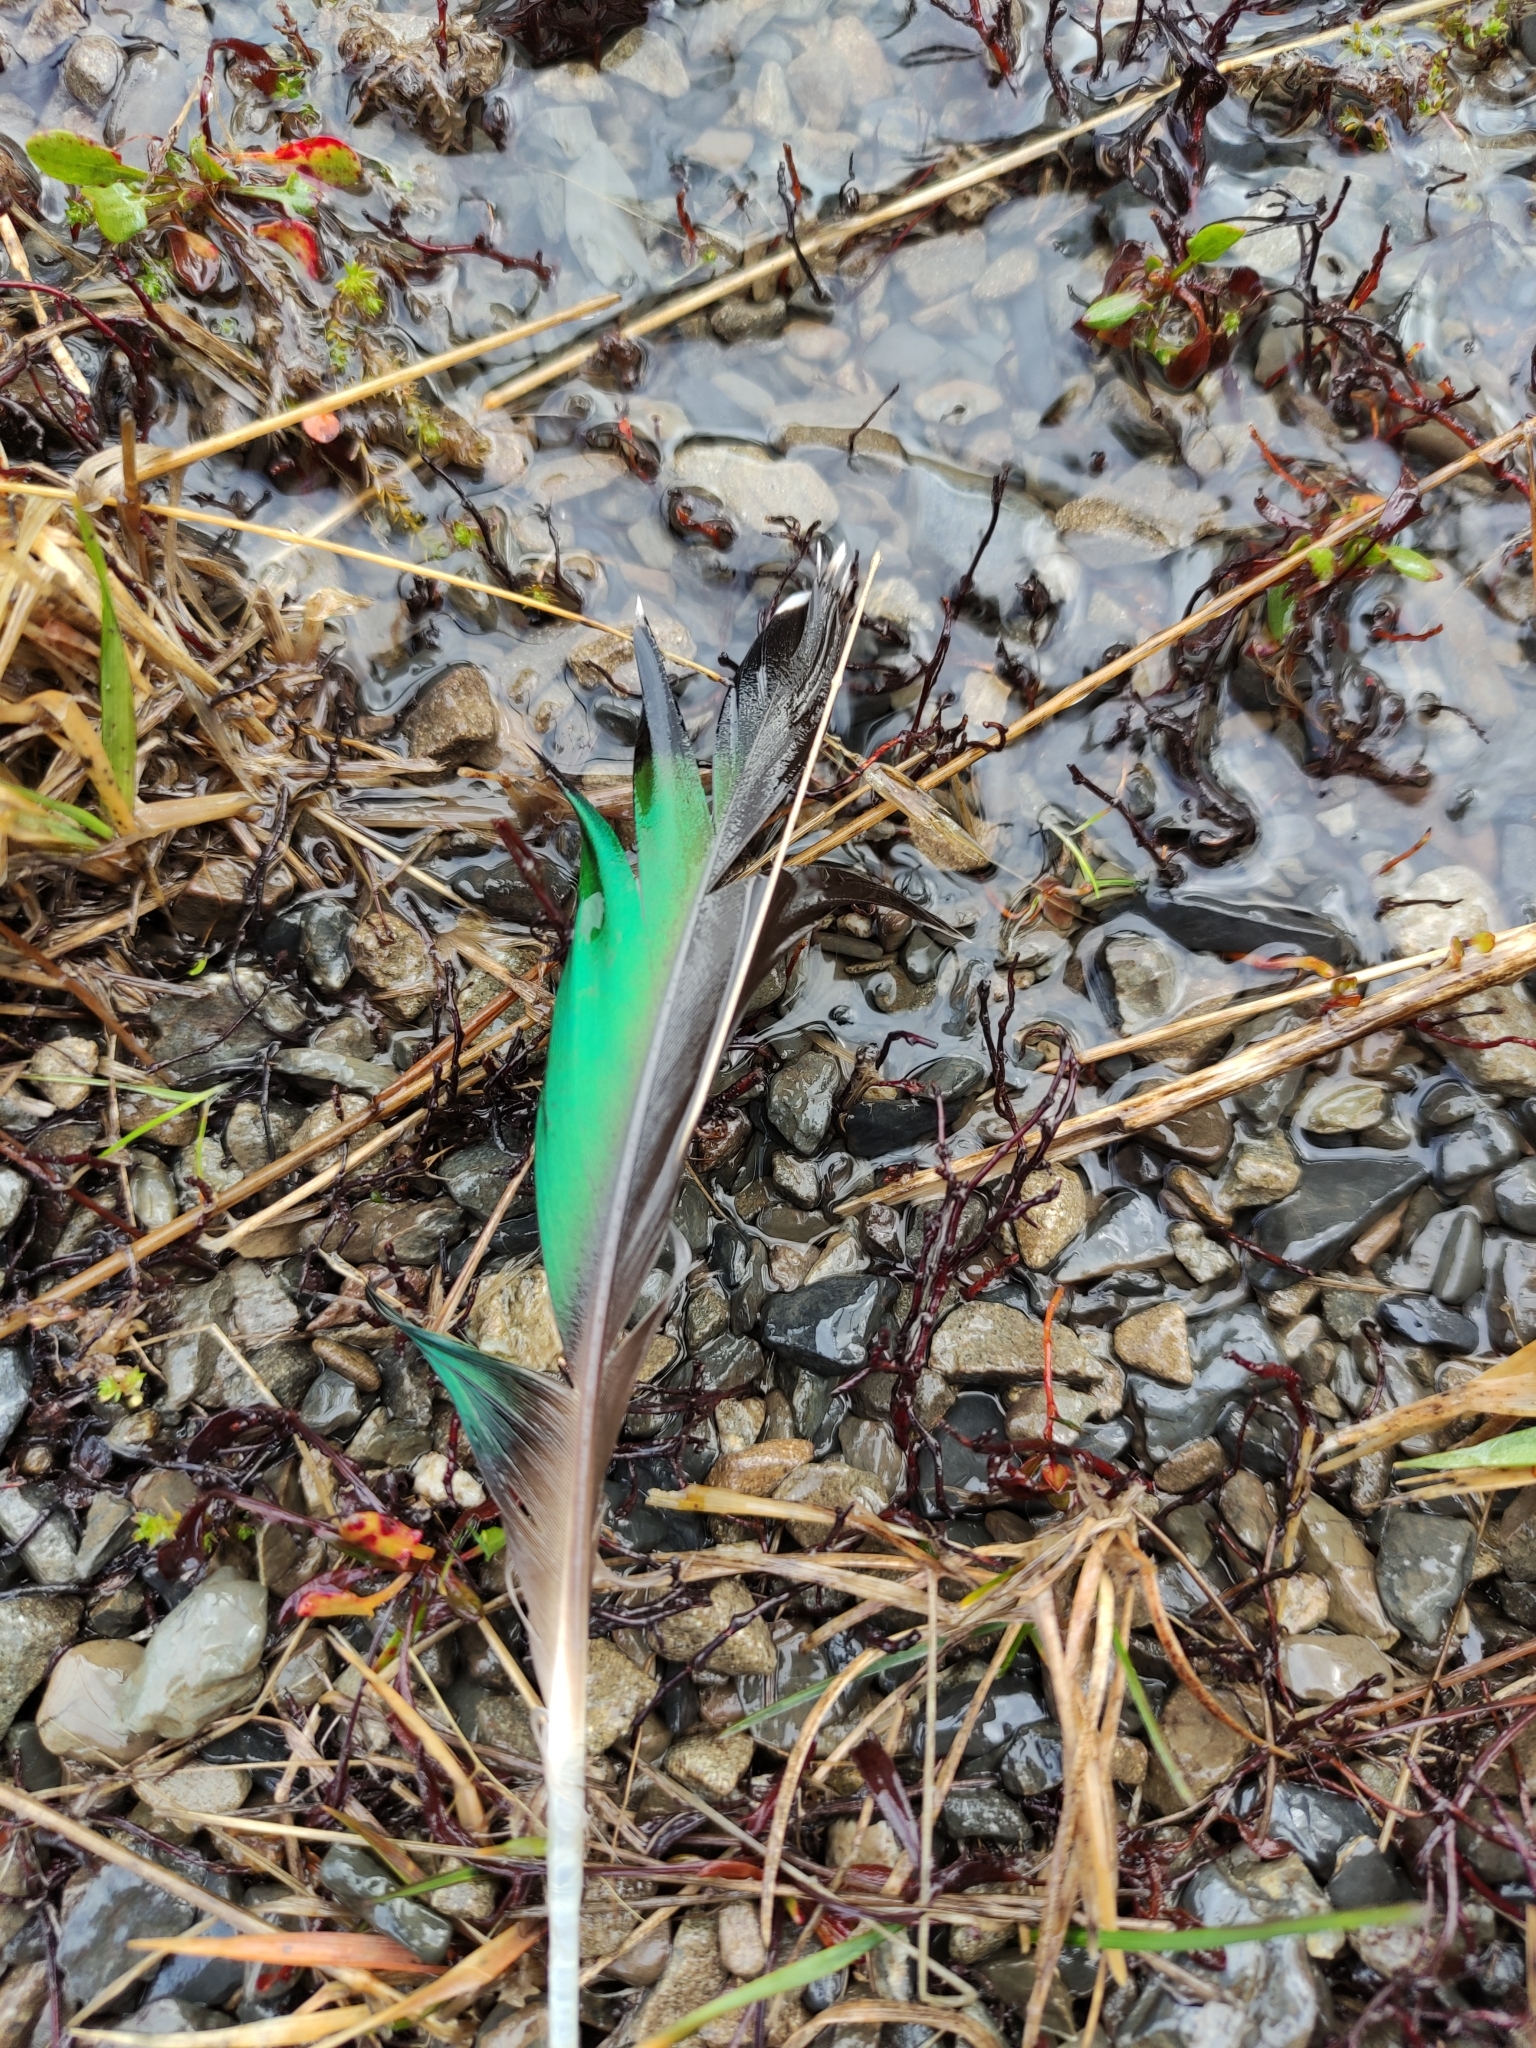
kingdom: Animalia
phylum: Chordata
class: Aves
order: Anseriformes
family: Anatidae
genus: Anas
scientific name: Anas
